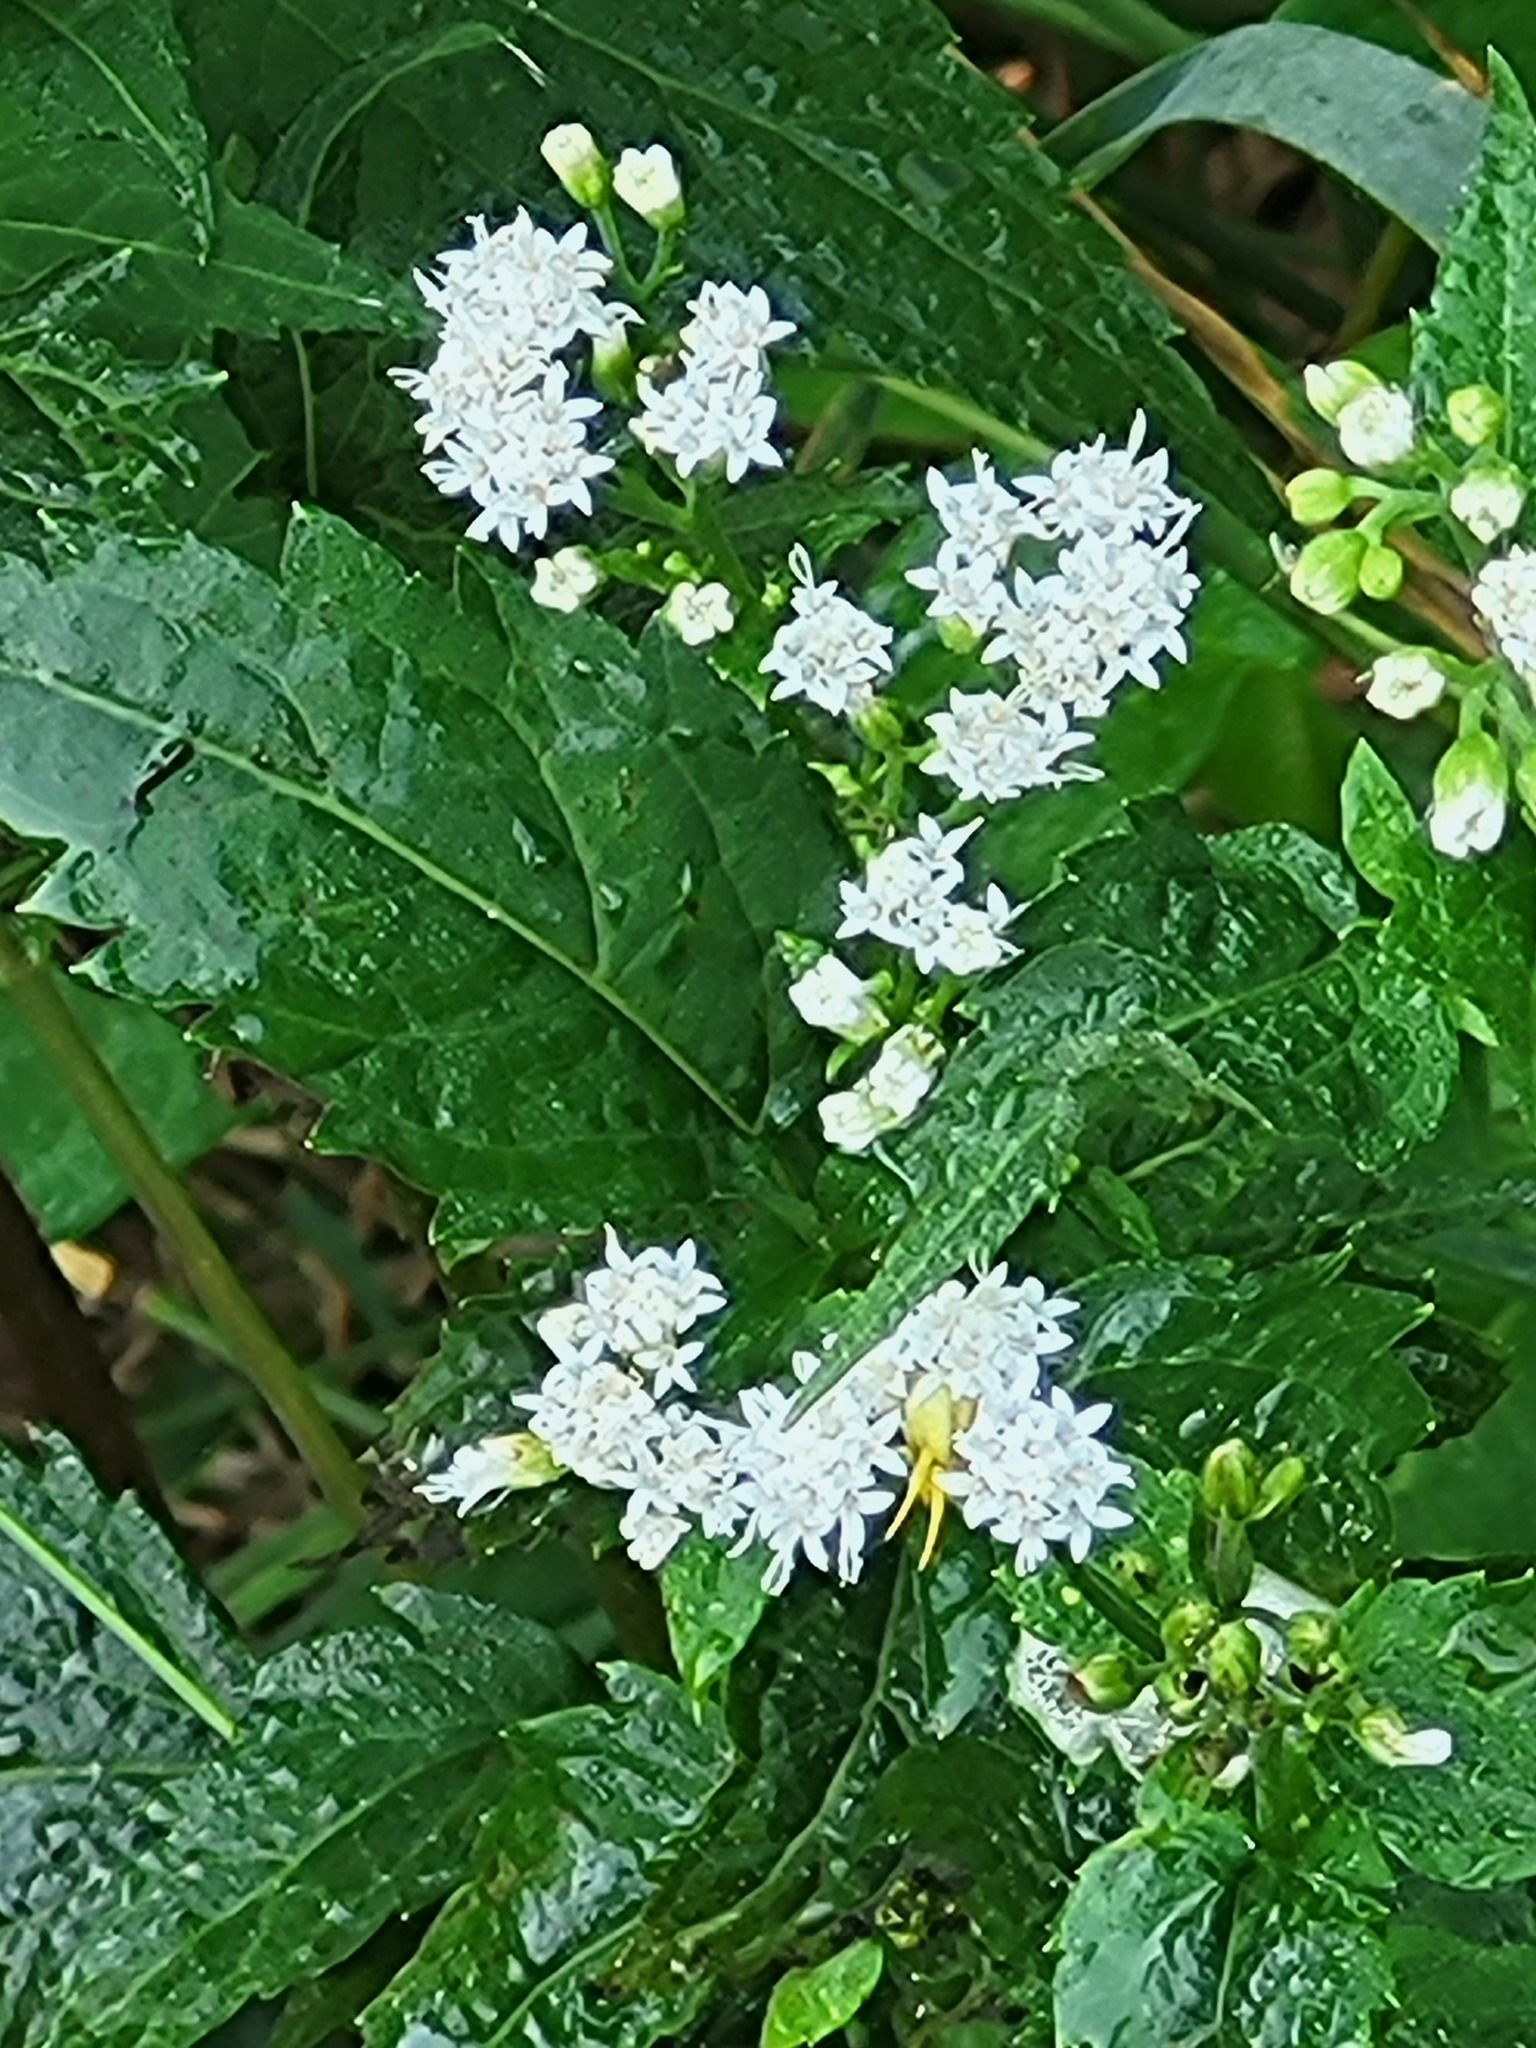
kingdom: Plantae
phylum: Tracheophyta
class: Magnoliopsida
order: Asterales
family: Asteraceae
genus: Ageratina
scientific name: Ageratina altissima
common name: White snakeroot
